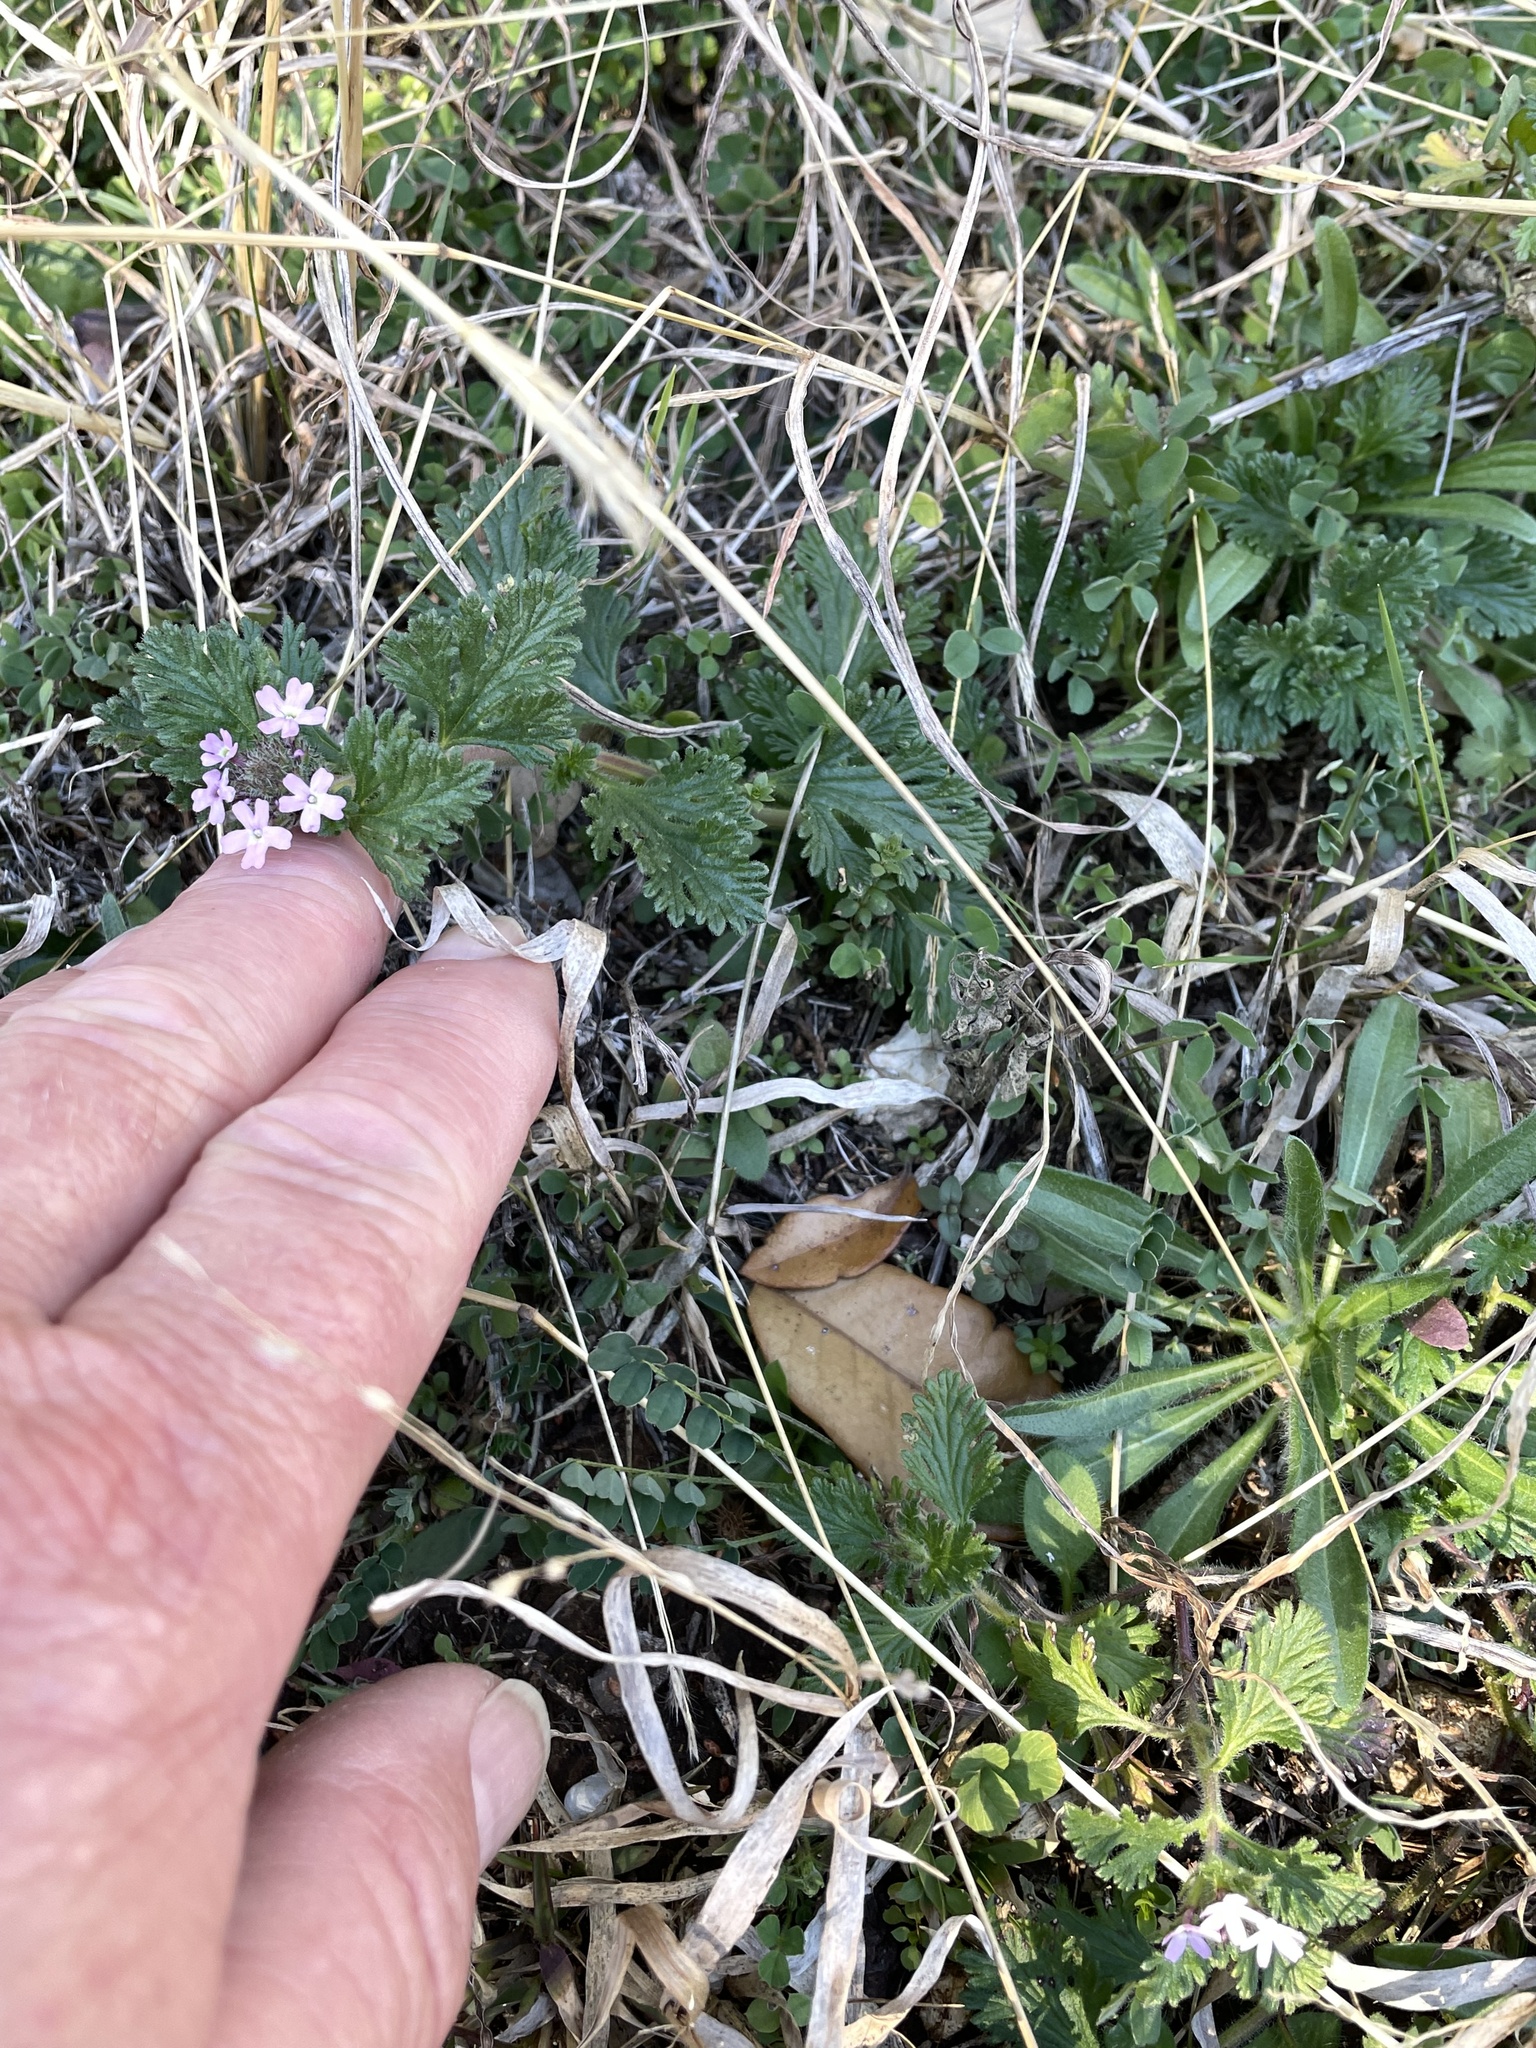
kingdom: Plantae
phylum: Tracheophyta
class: Magnoliopsida
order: Lamiales
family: Verbenaceae
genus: Verbena
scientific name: Verbena pumila
